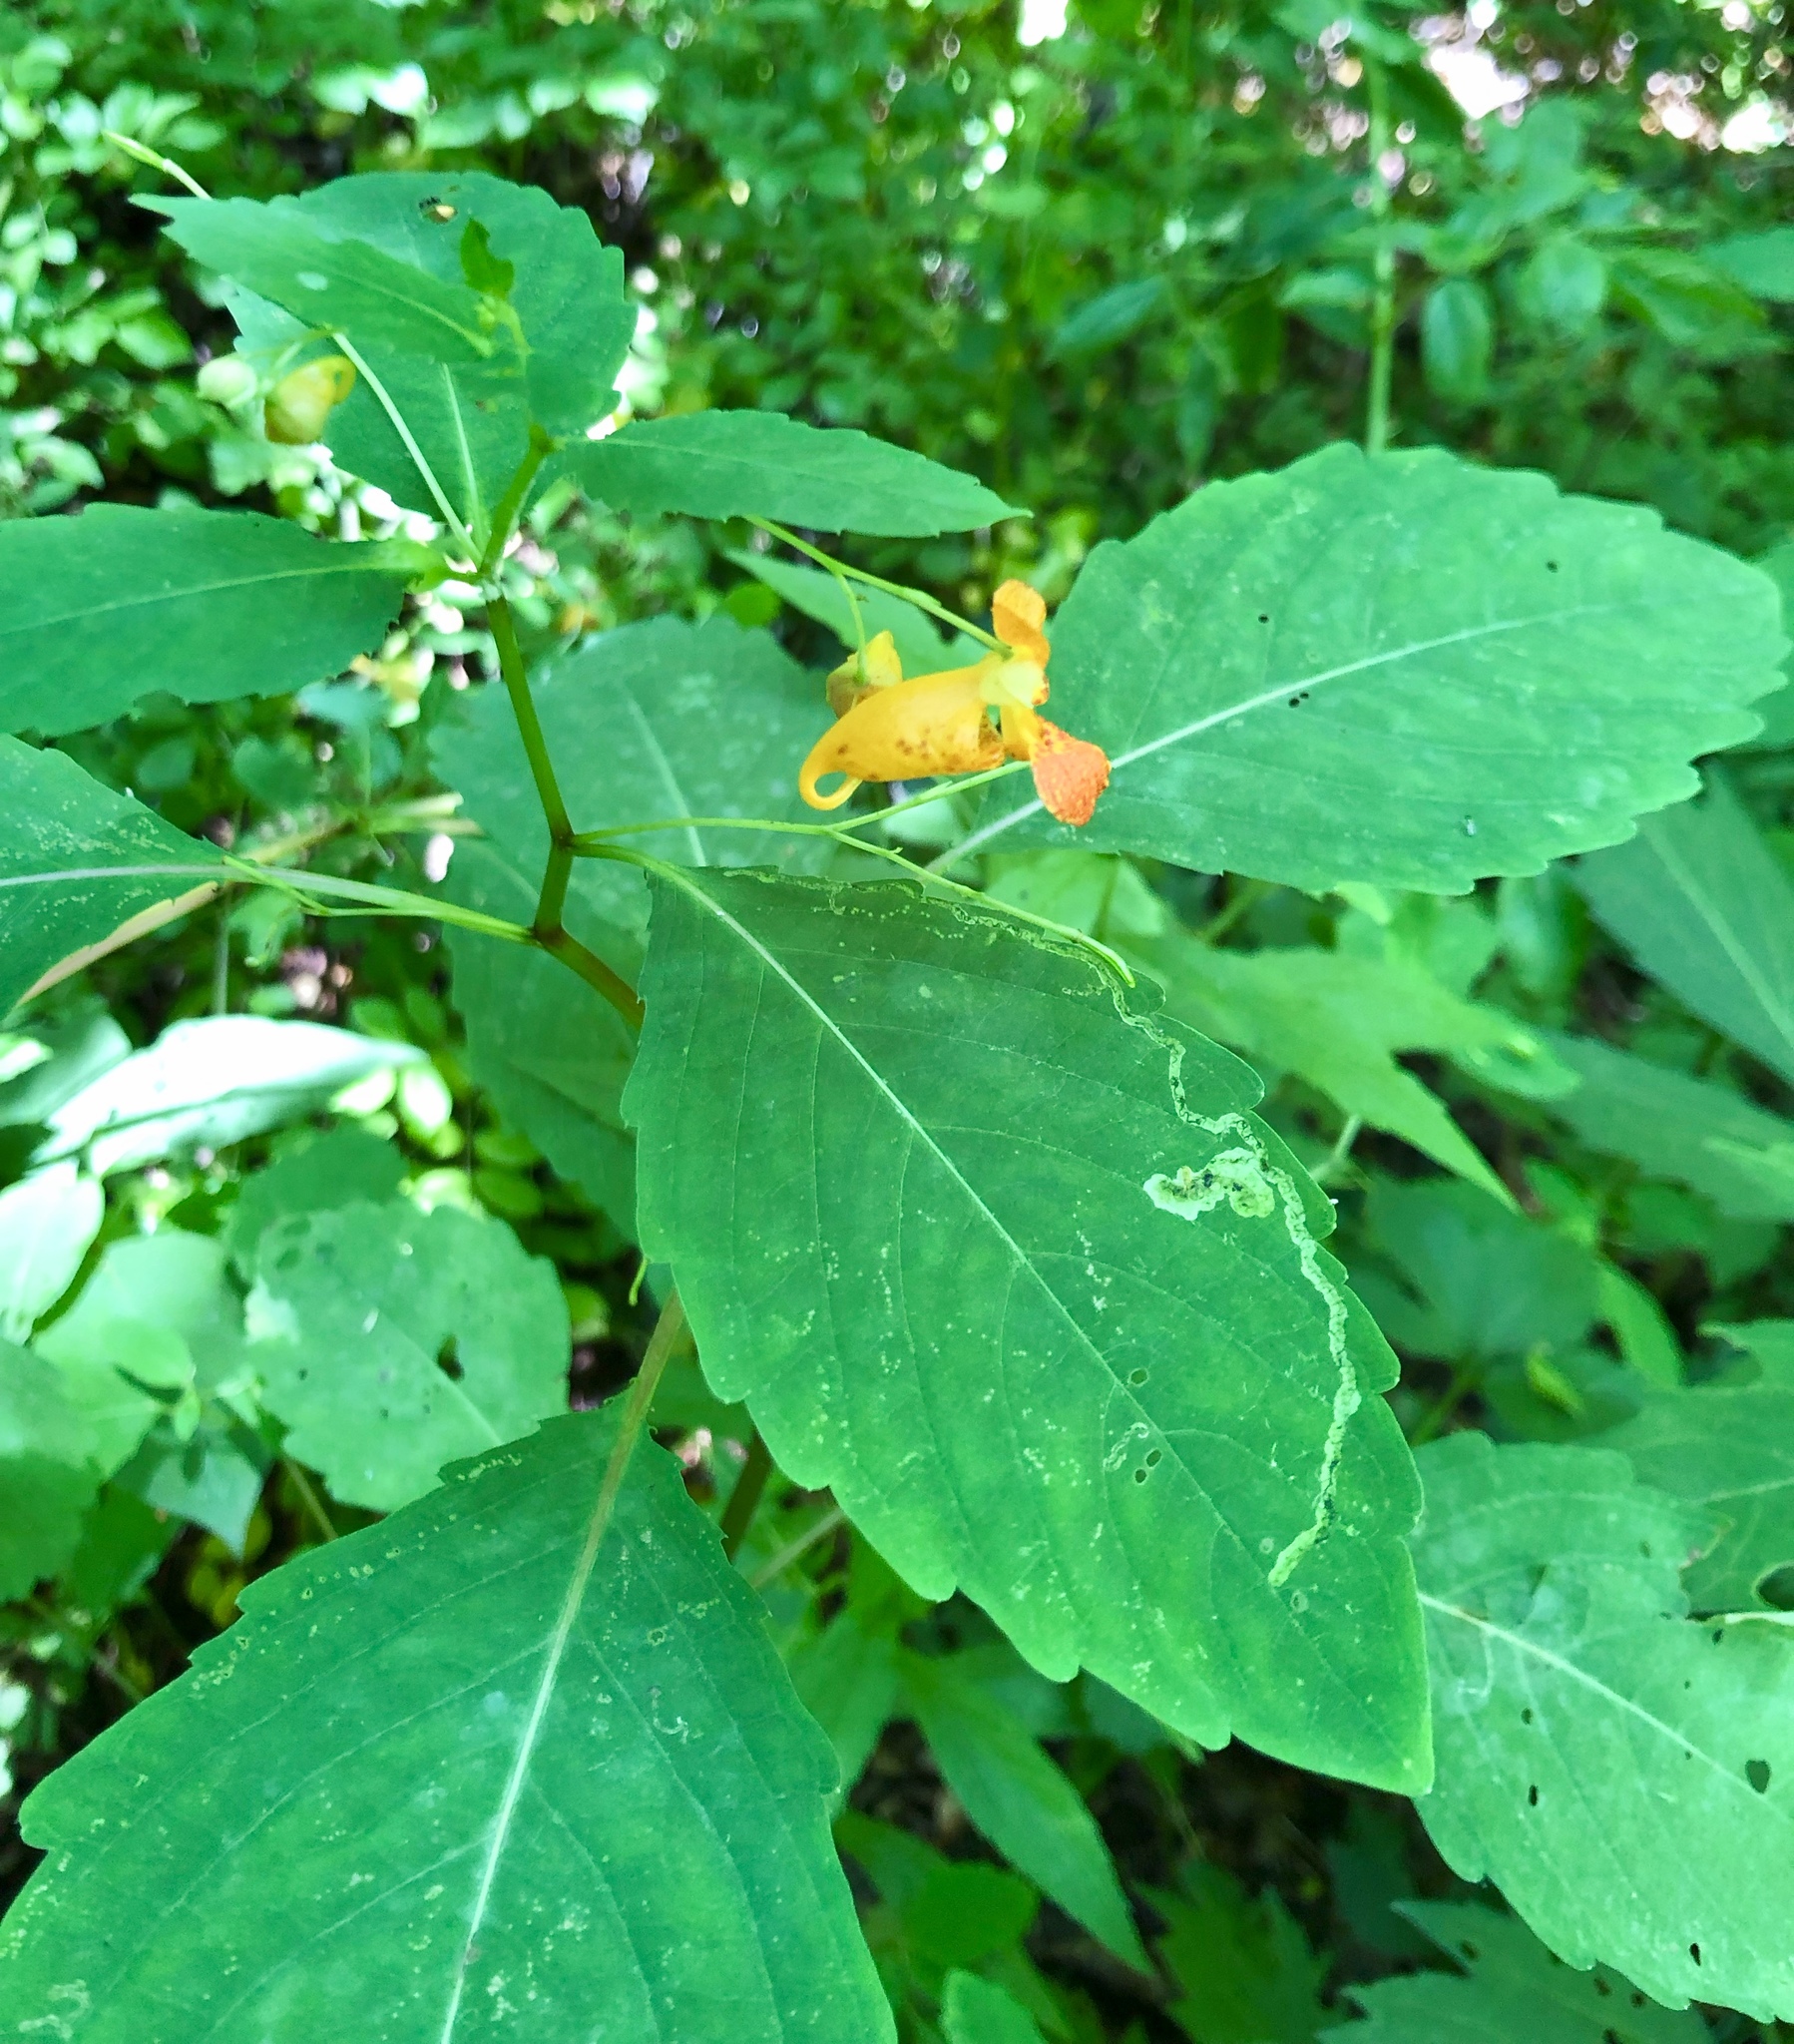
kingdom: Plantae
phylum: Tracheophyta
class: Magnoliopsida
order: Ericales
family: Balsaminaceae
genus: Impatiens
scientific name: Impatiens capensis
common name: Orange balsam
